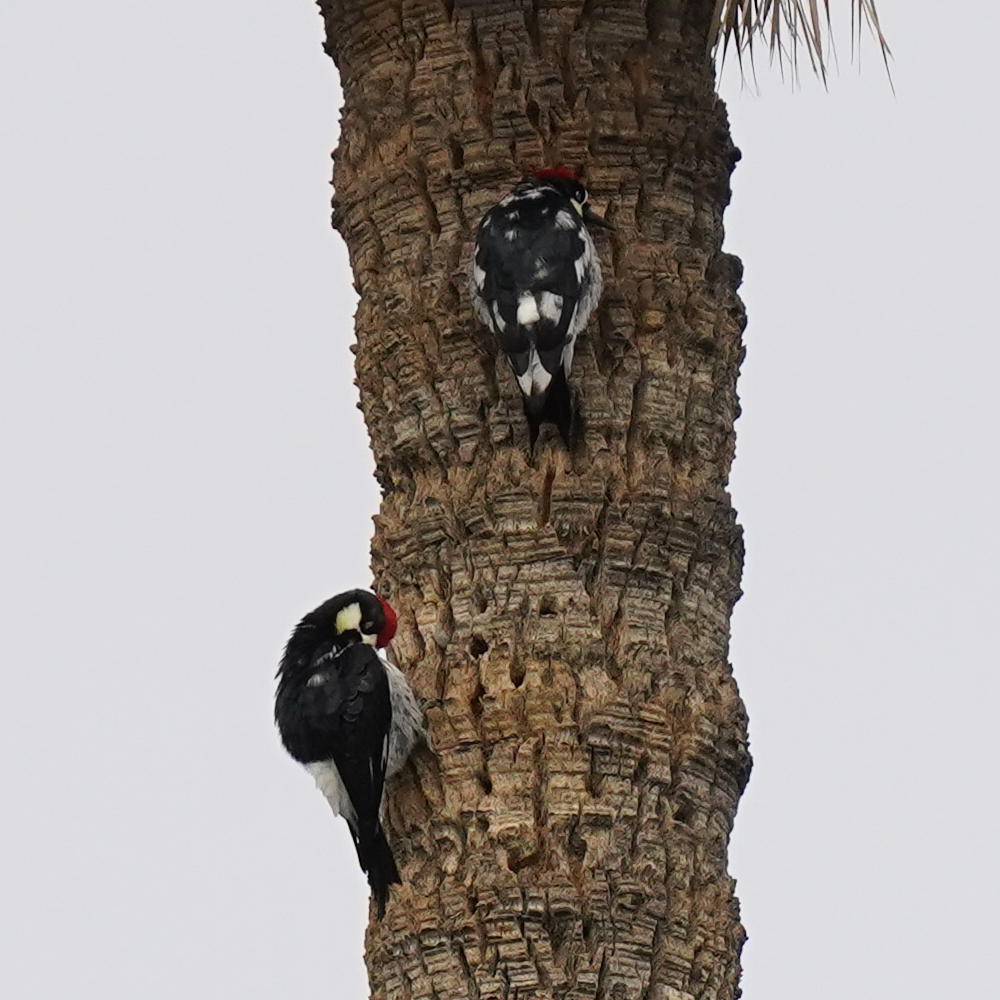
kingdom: Animalia
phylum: Chordata
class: Aves
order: Piciformes
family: Picidae
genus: Melanerpes
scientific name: Melanerpes formicivorus
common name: Acorn woodpecker
